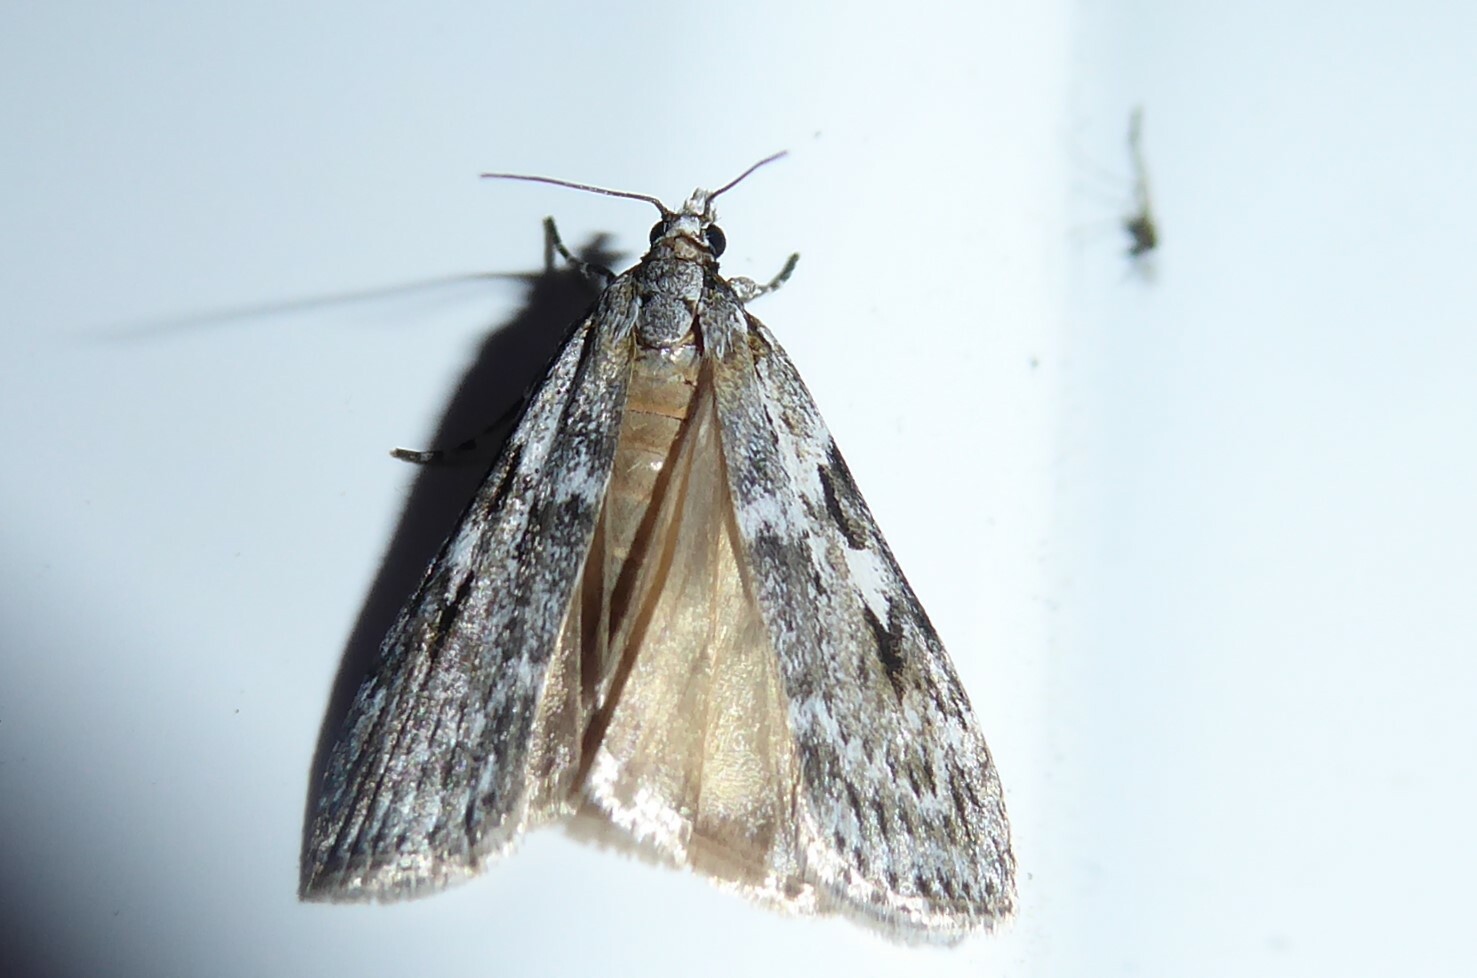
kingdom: Animalia
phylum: Arthropoda
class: Insecta
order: Lepidoptera
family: Crambidae
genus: Scoparia
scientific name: Scoparia halopis
